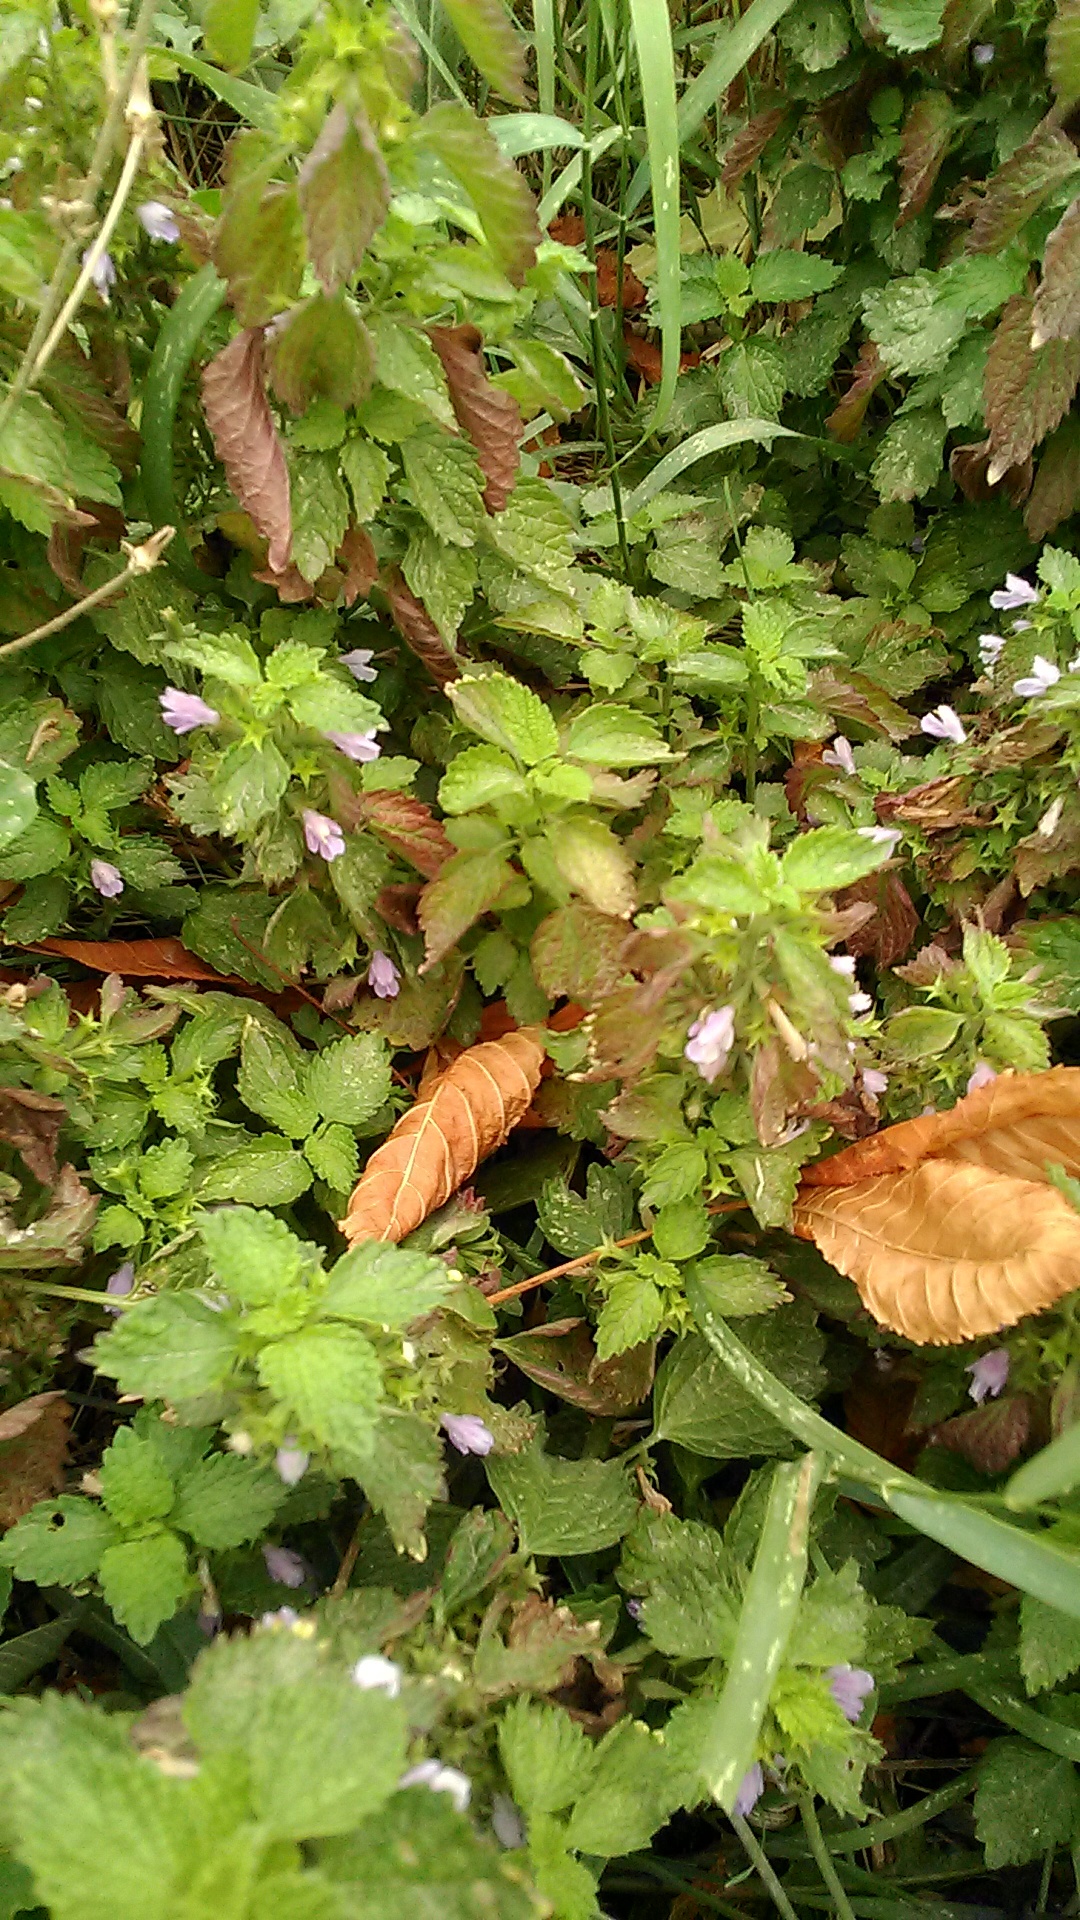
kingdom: Plantae
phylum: Tracheophyta
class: Magnoliopsida
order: Lamiales
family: Lamiaceae
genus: Ballota
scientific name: Ballota nigra
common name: Black horehound
